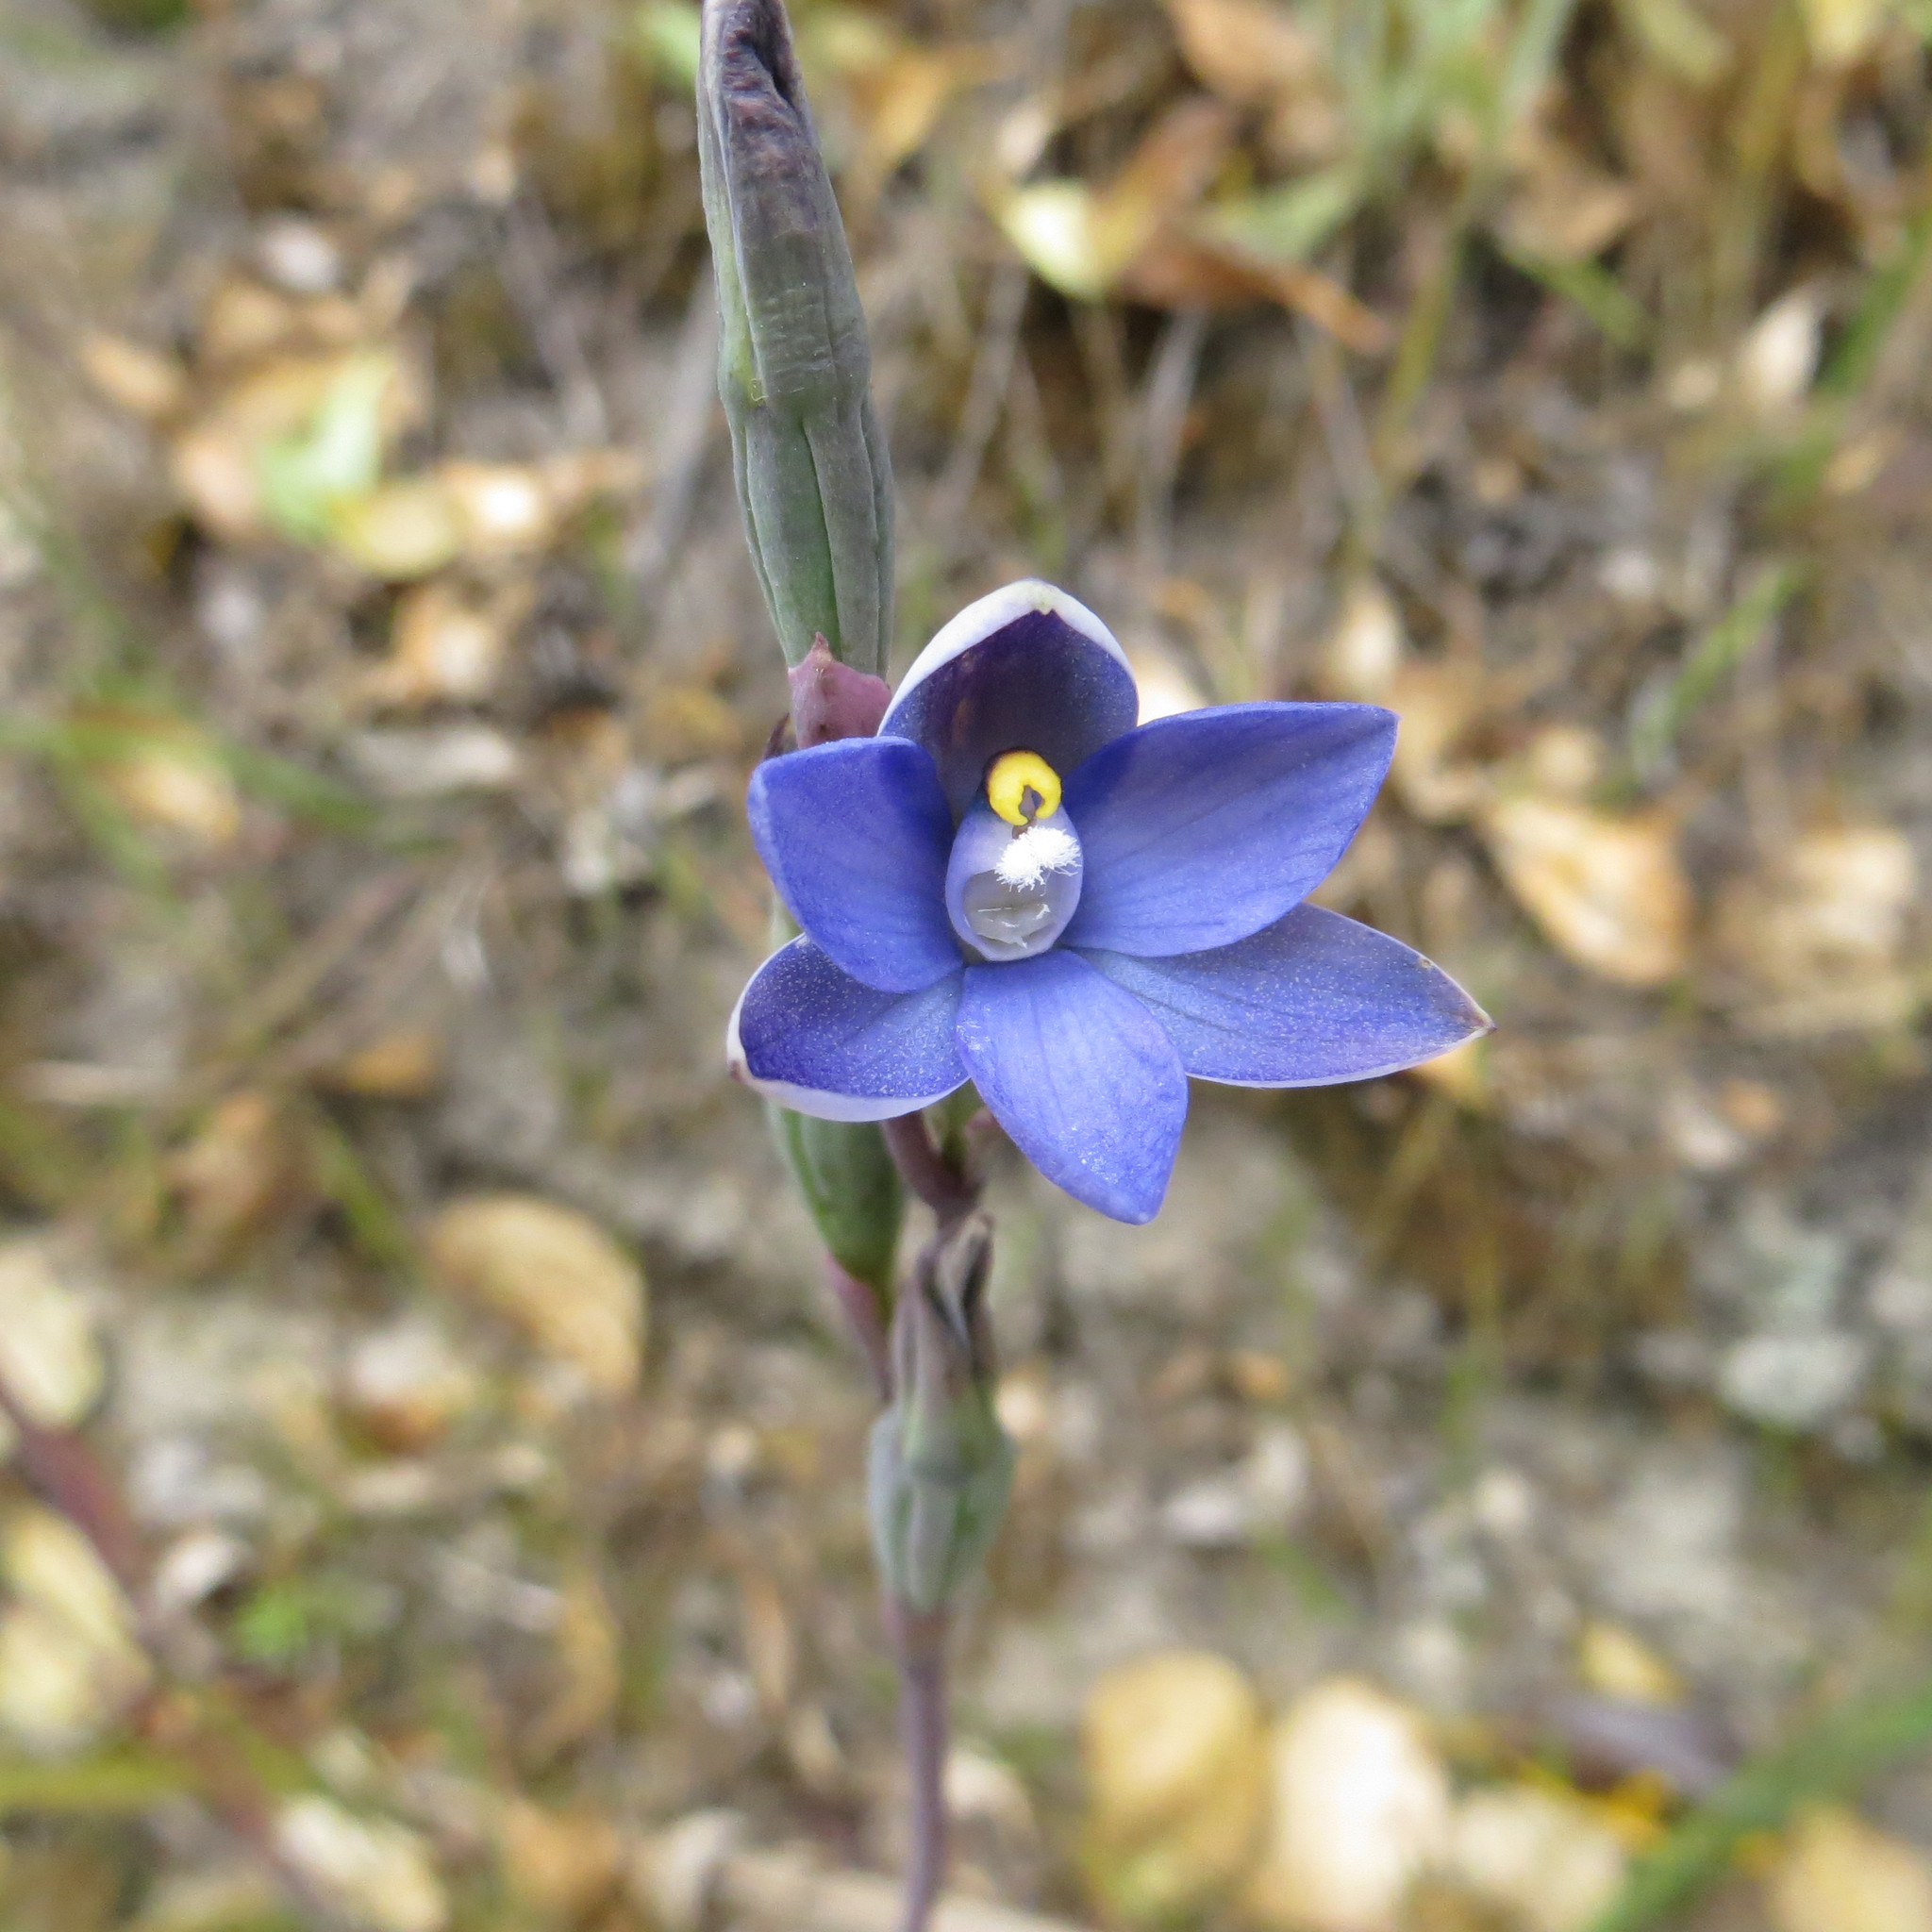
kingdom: Plantae
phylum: Tracheophyta
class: Liliopsida
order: Asparagales
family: Orchidaceae
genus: Thelymitra
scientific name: Thelymitra pauciflora
